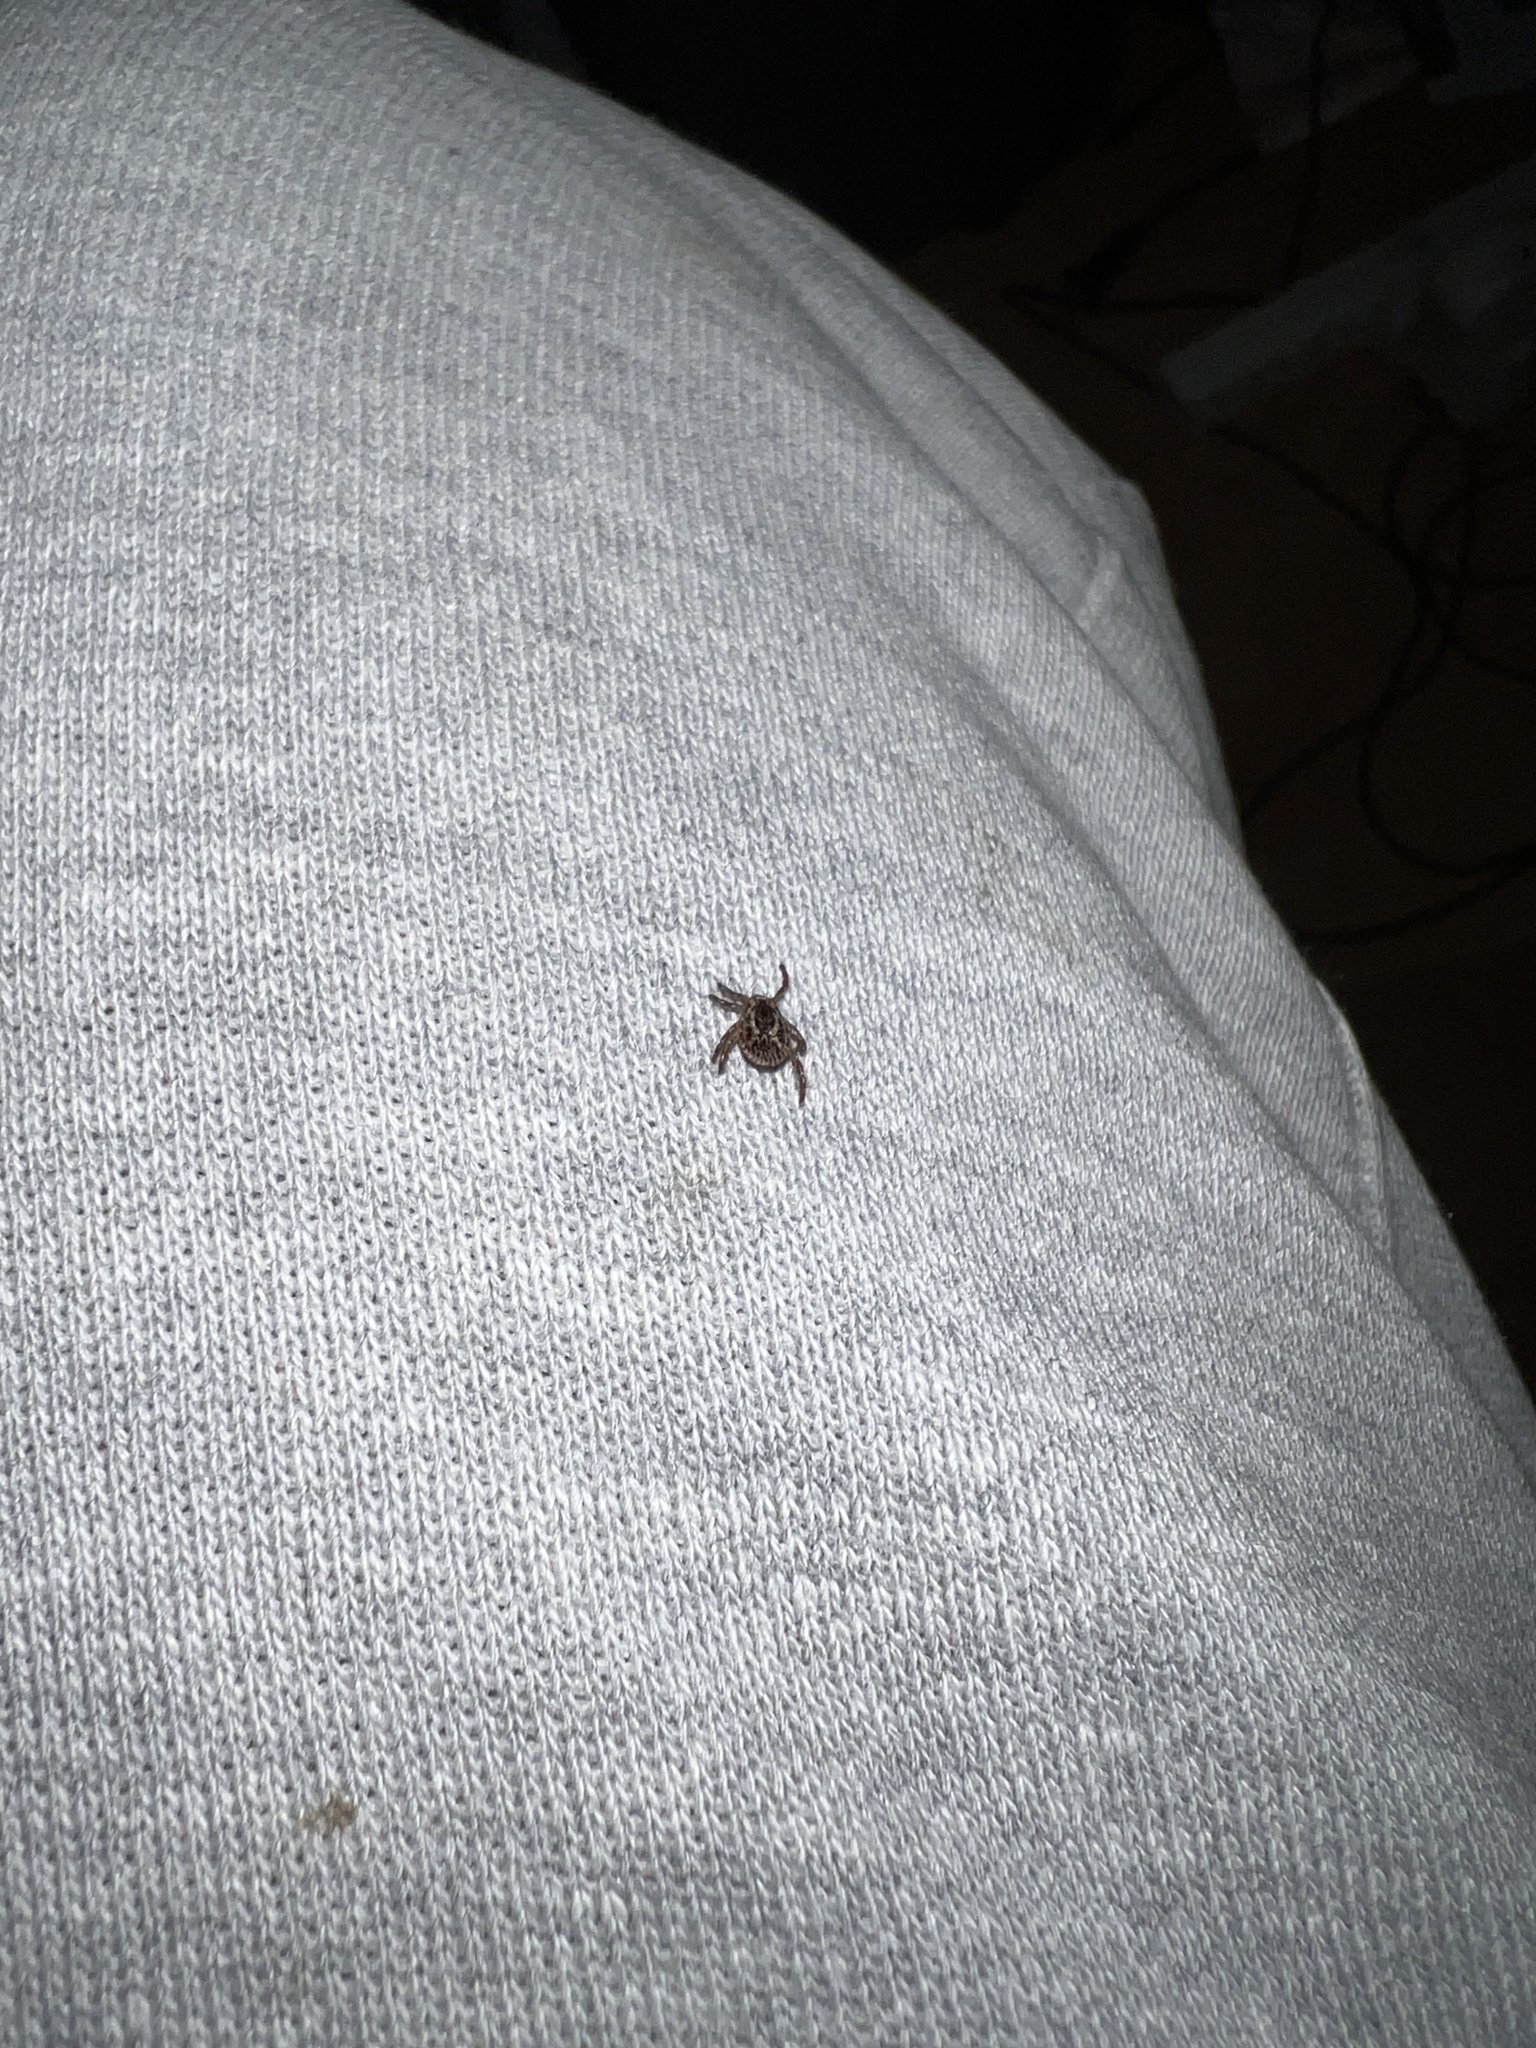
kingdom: Animalia
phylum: Arthropoda
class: Arachnida
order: Ixodida
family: Ixodidae
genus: Dermacentor
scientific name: Dermacentor variabilis
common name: American dog tick
